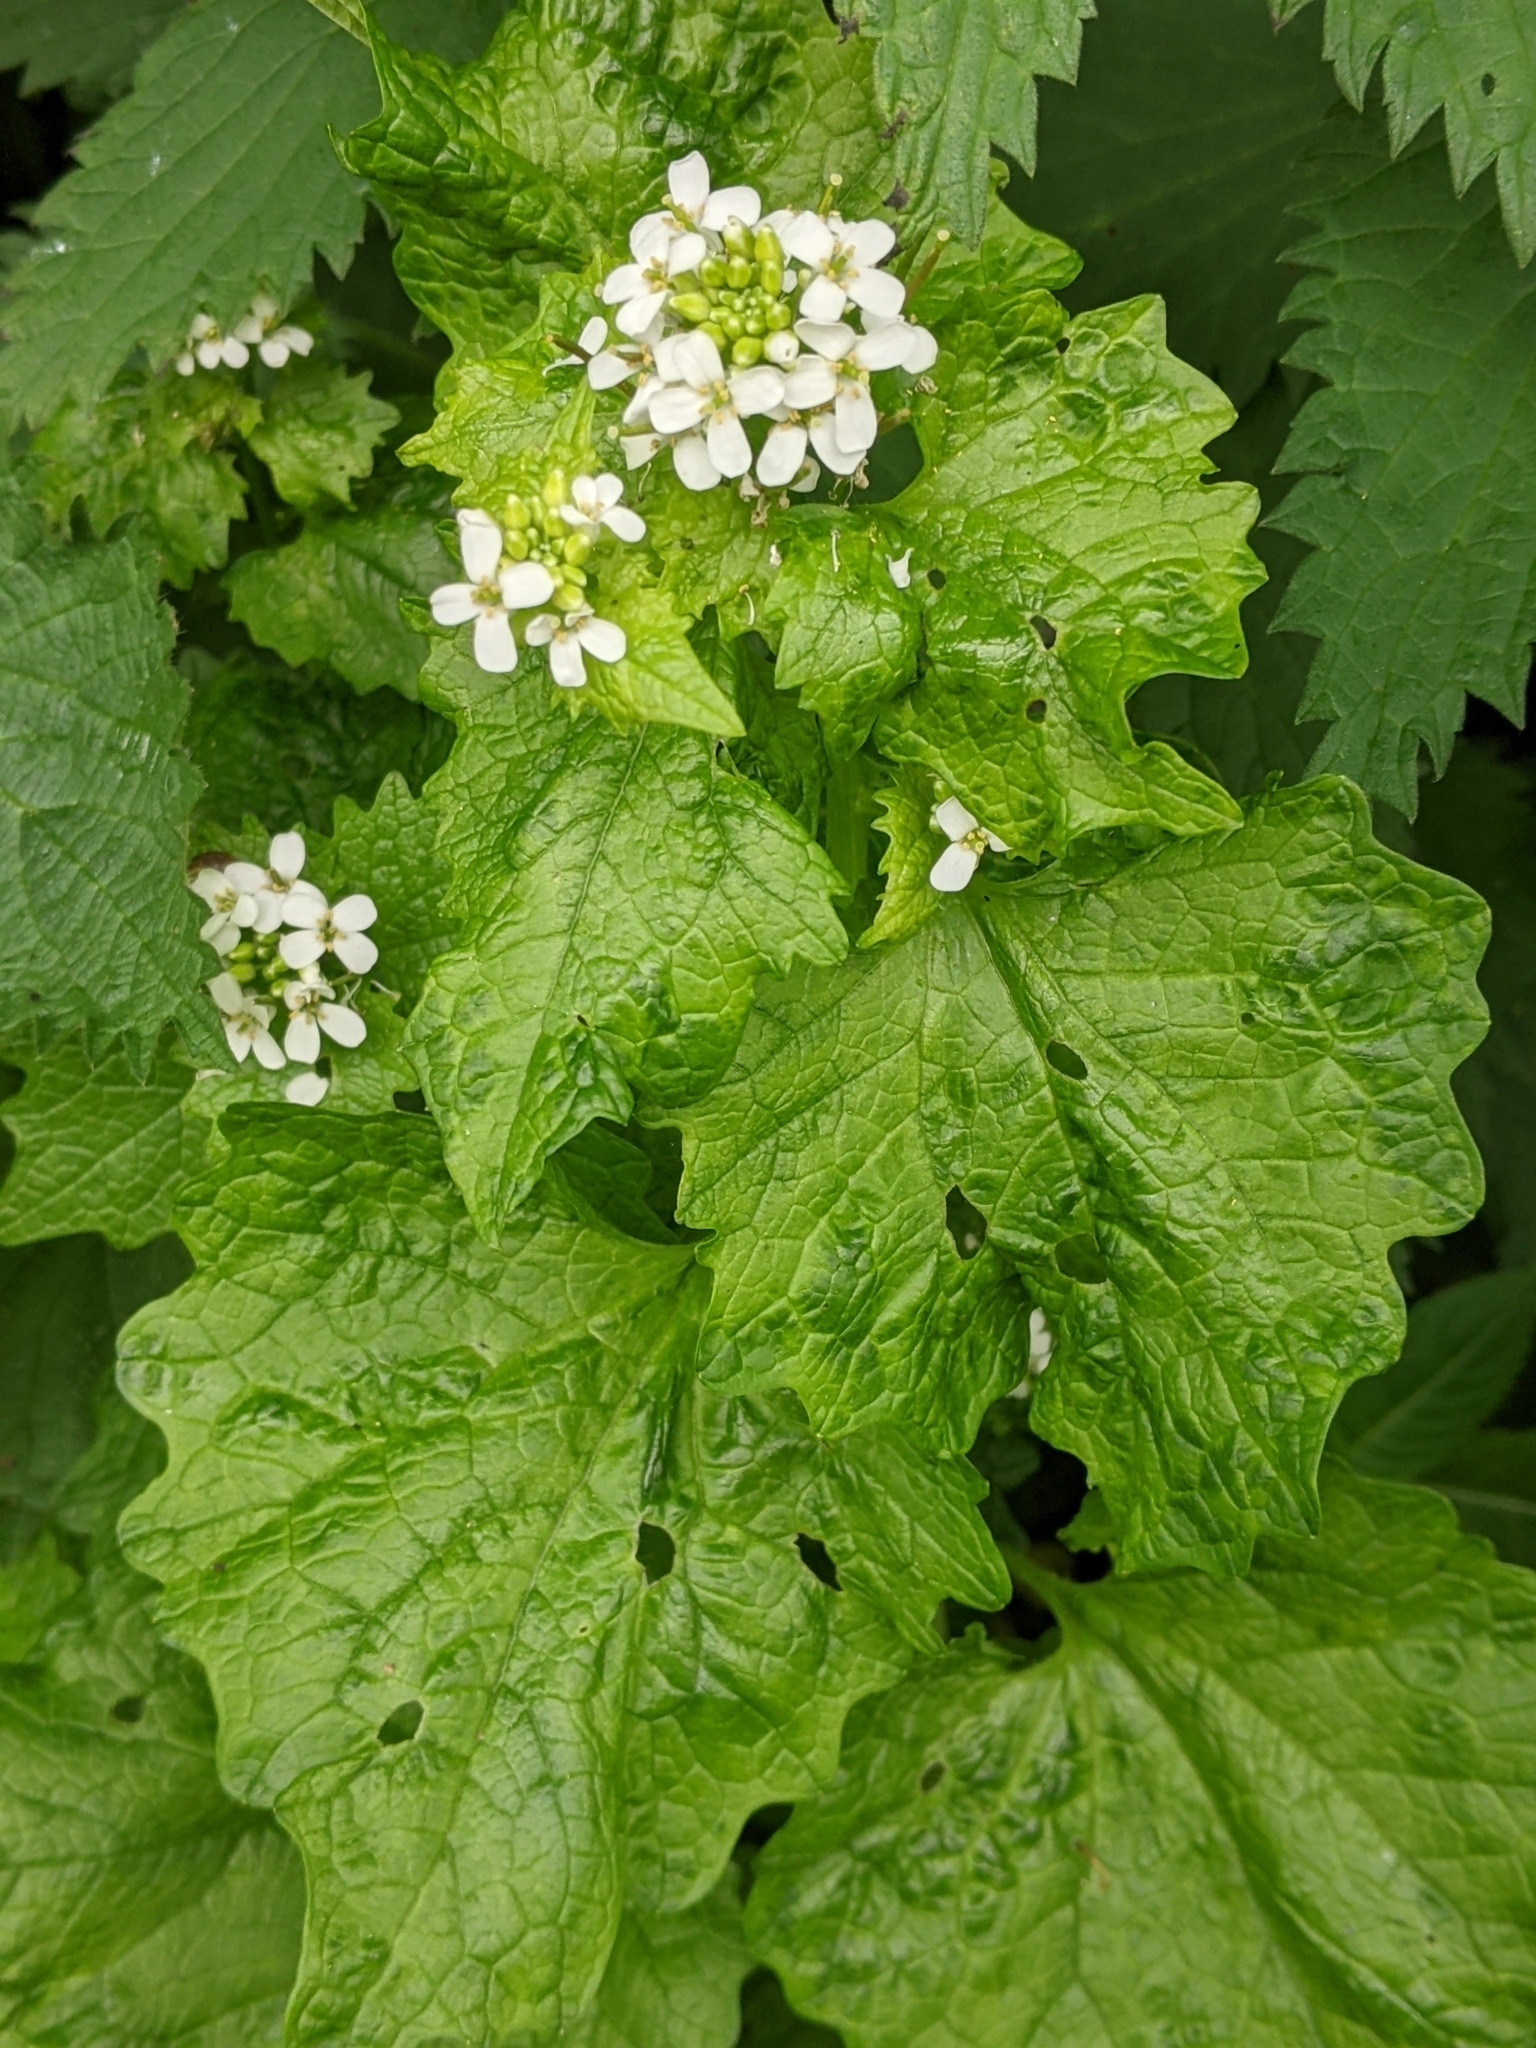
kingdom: Plantae
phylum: Tracheophyta
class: Magnoliopsida
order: Brassicales
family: Brassicaceae
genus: Alliaria
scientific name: Alliaria petiolata
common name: Garlic mustard
